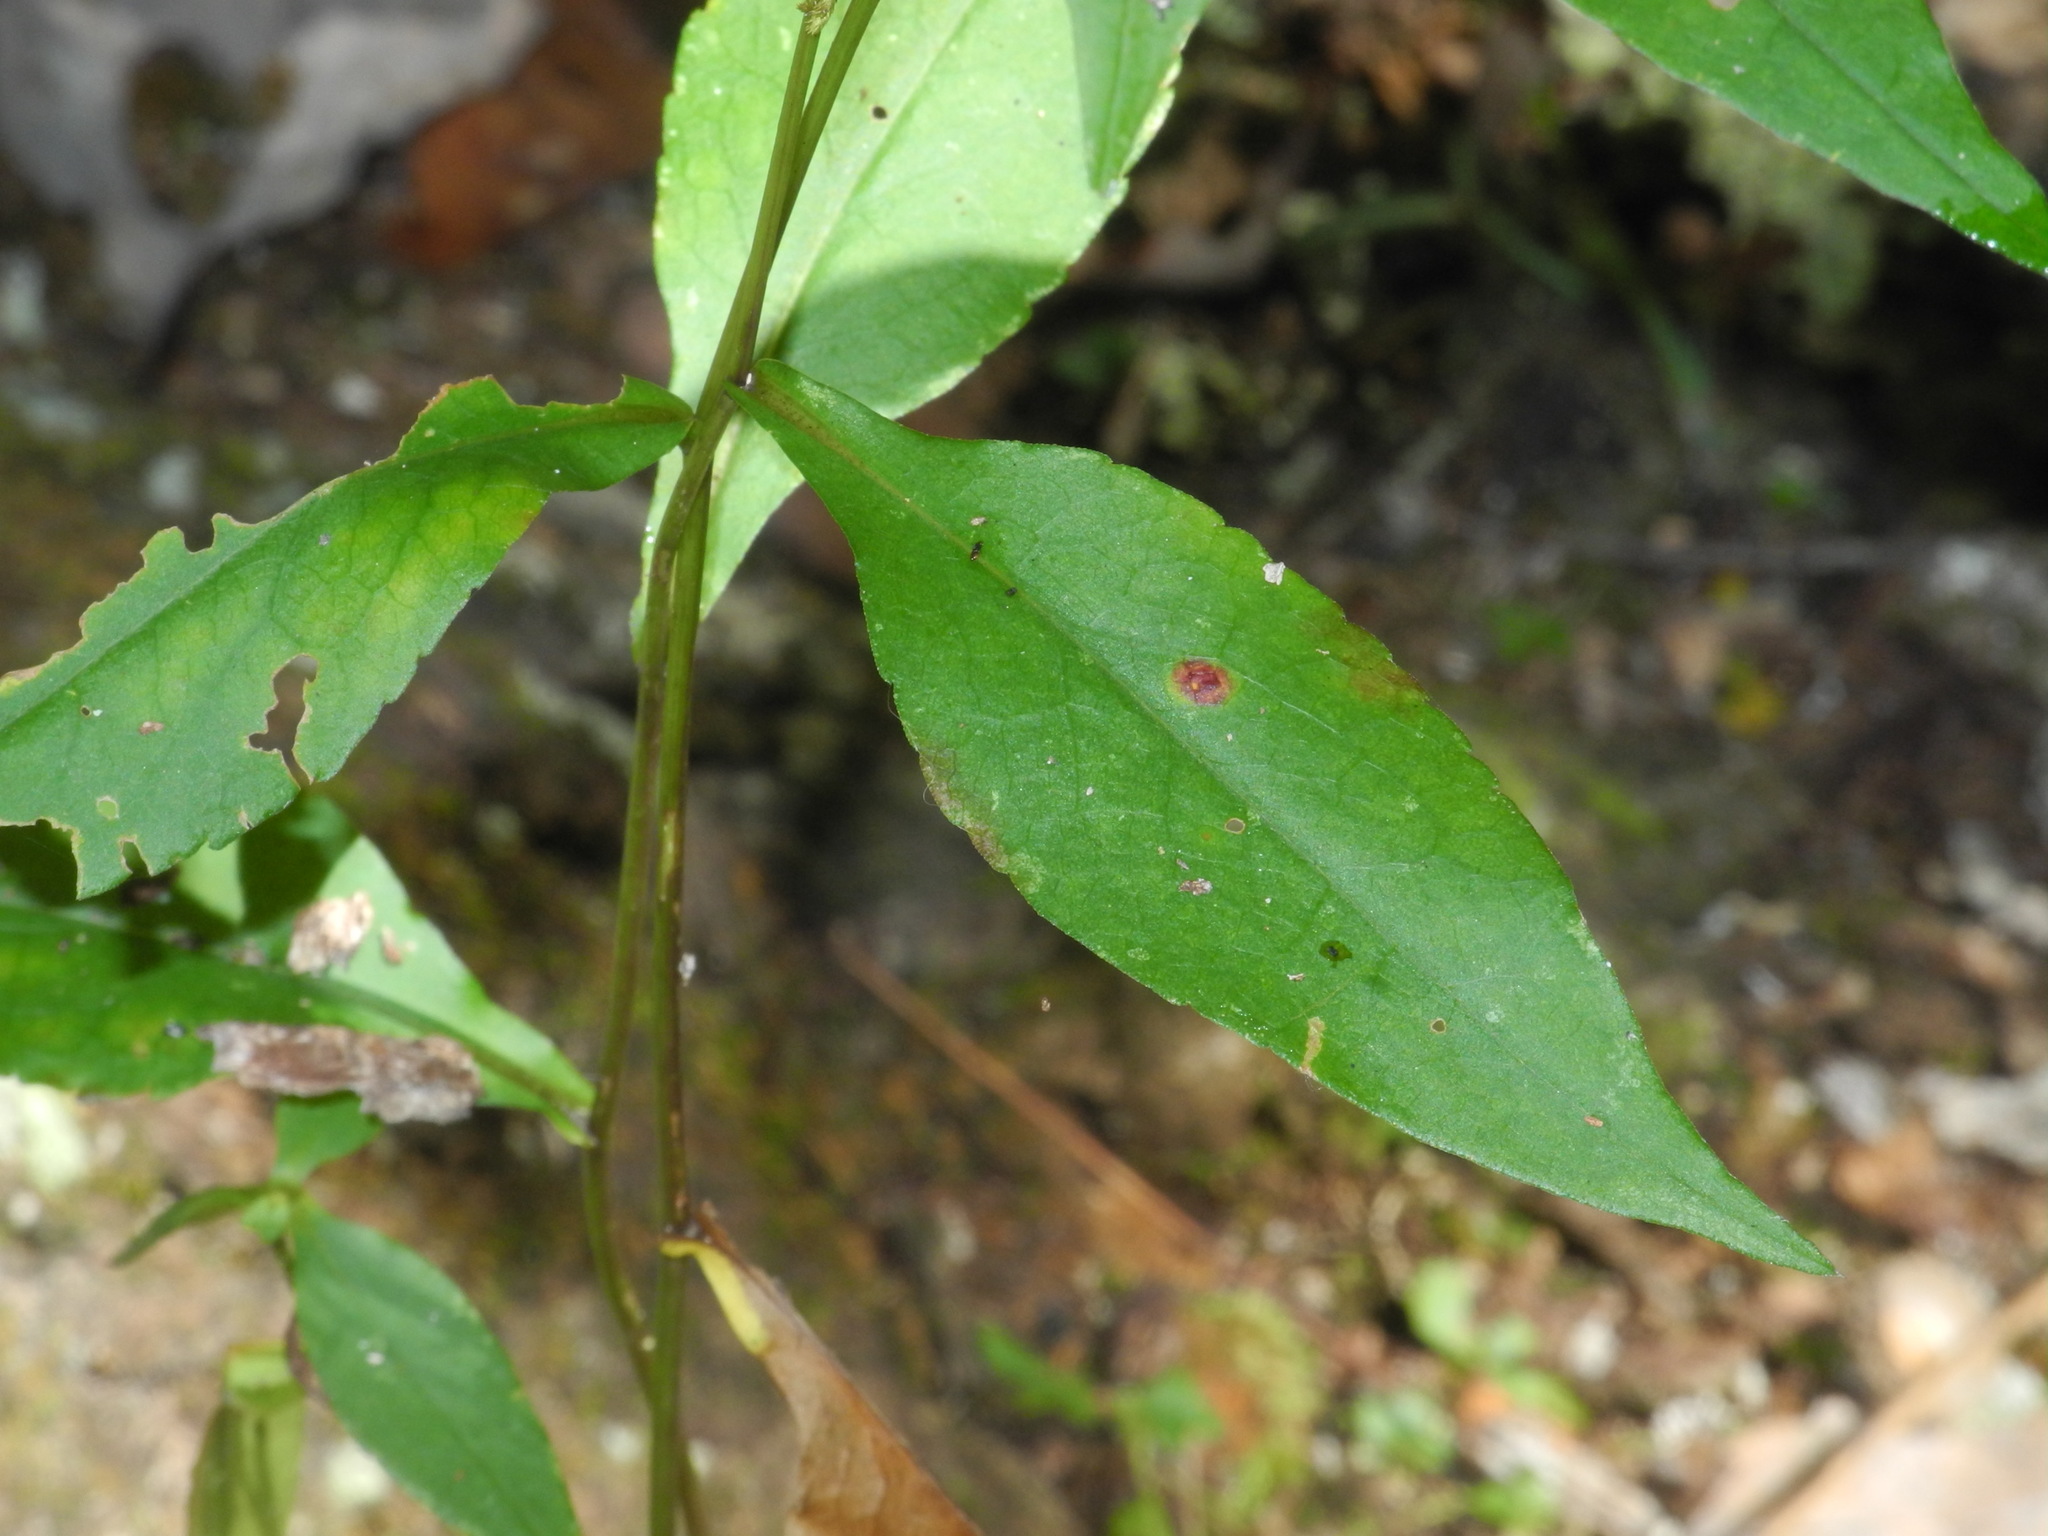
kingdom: Plantae
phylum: Tracheophyta
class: Magnoliopsida
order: Asterales
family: Asteraceae
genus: Symphyotrichum
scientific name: Symphyotrichum retroflexum
